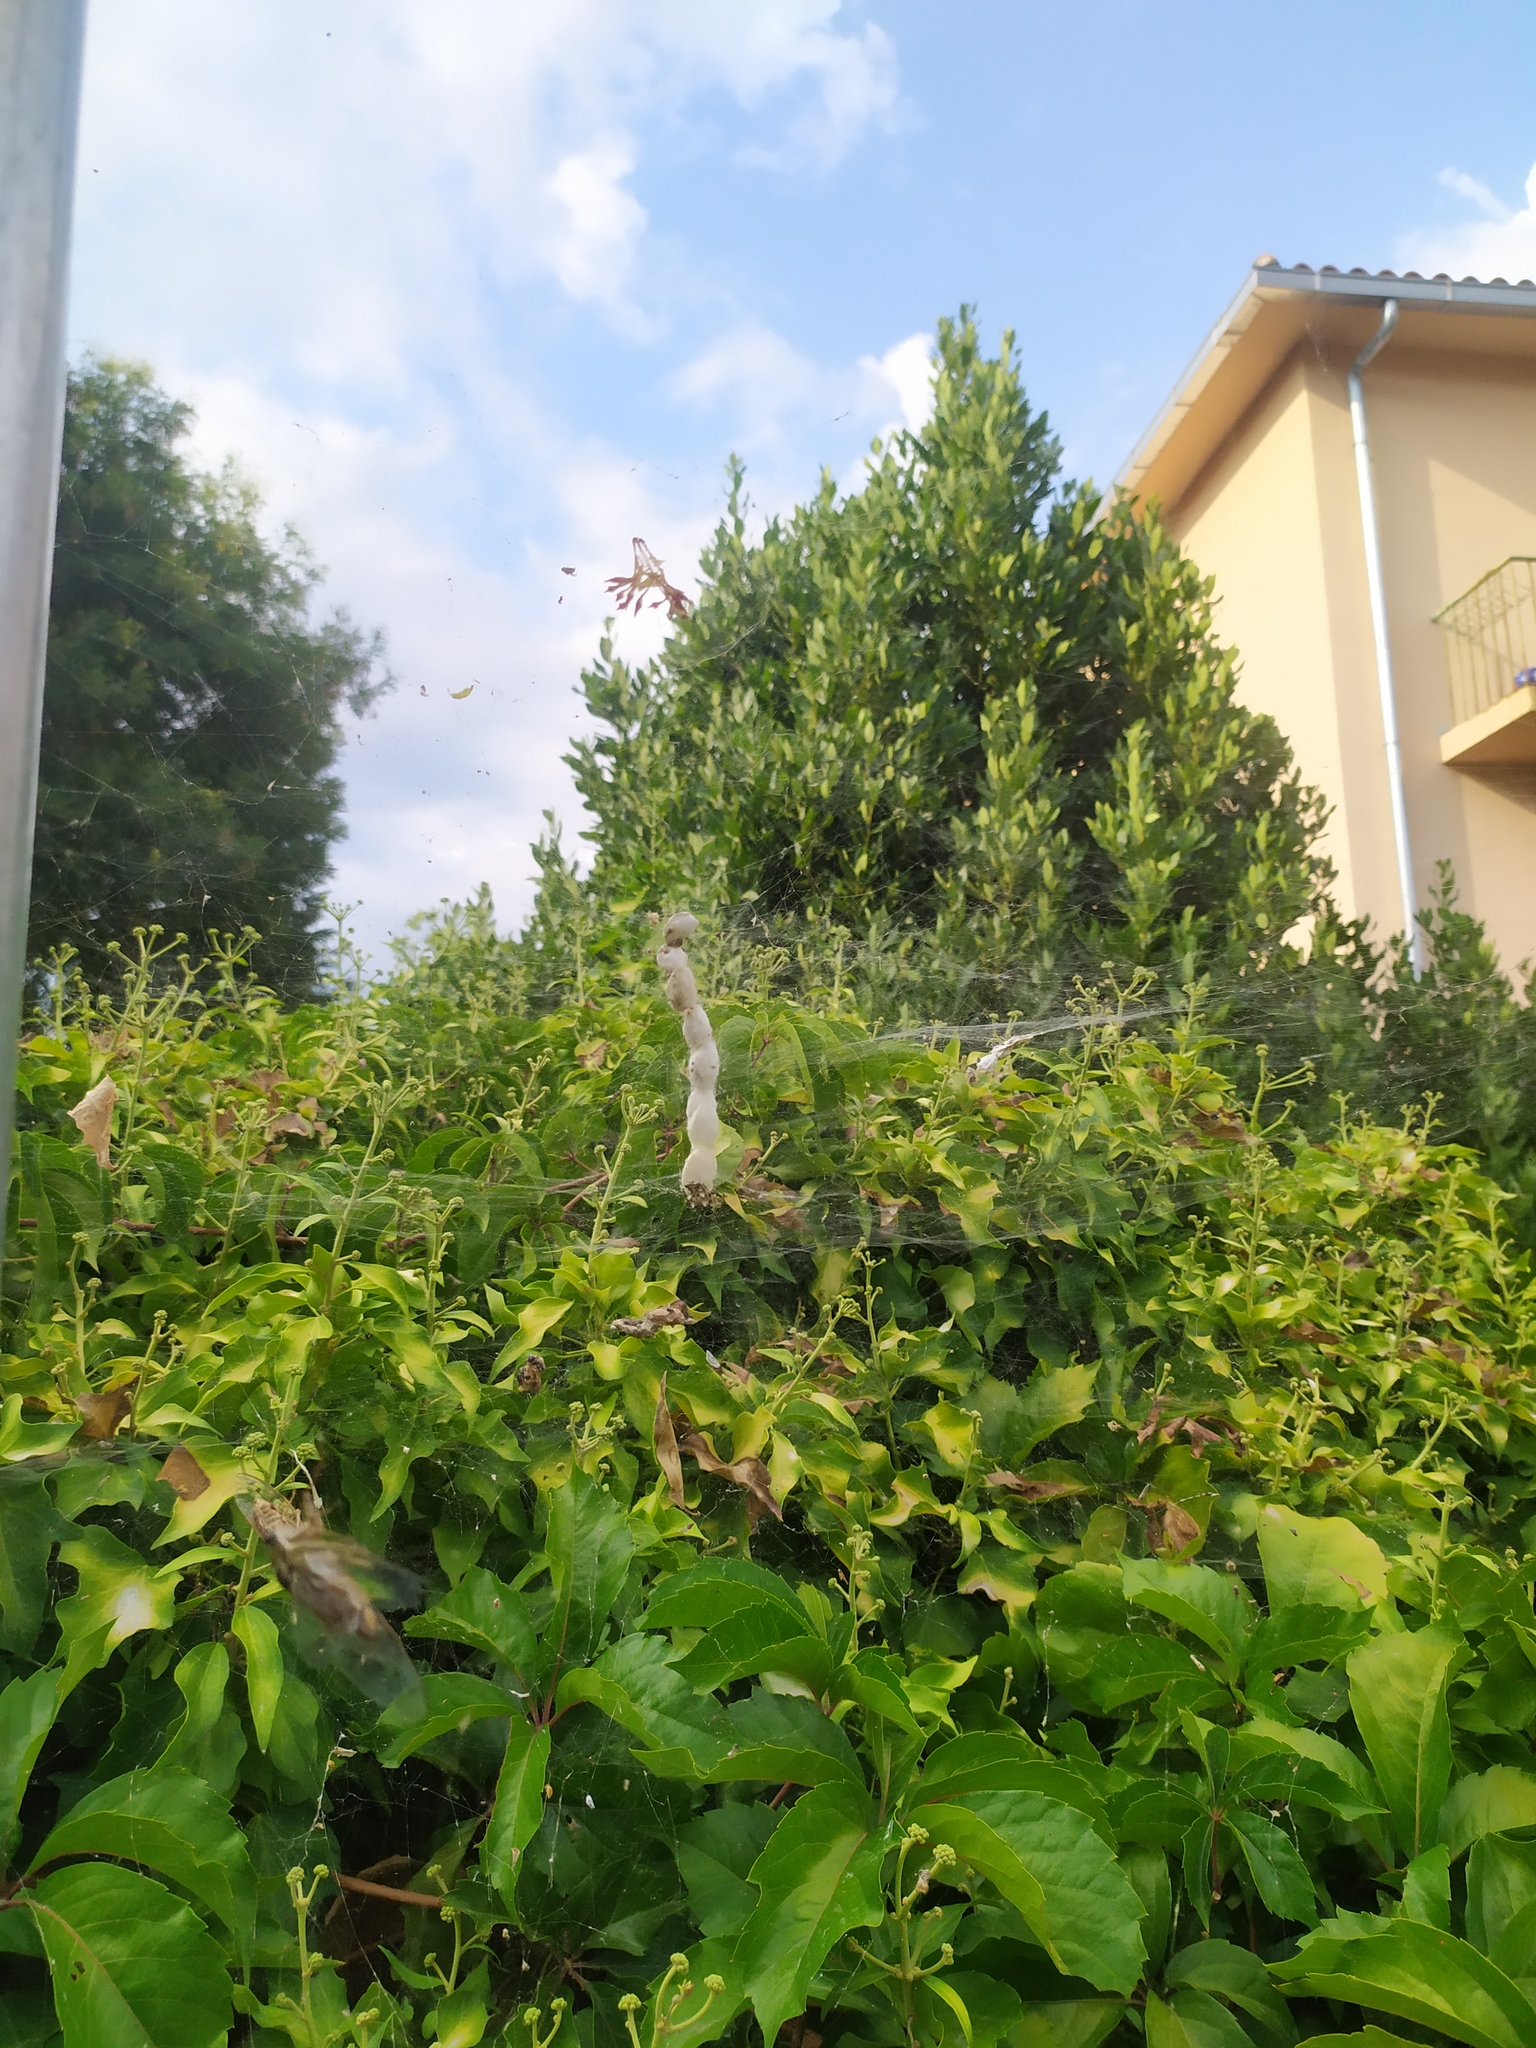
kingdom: Animalia
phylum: Arthropoda
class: Arachnida
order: Araneae
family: Araneidae
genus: Cyrtophora
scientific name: Cyrtophora citricola
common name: Orb weavers
